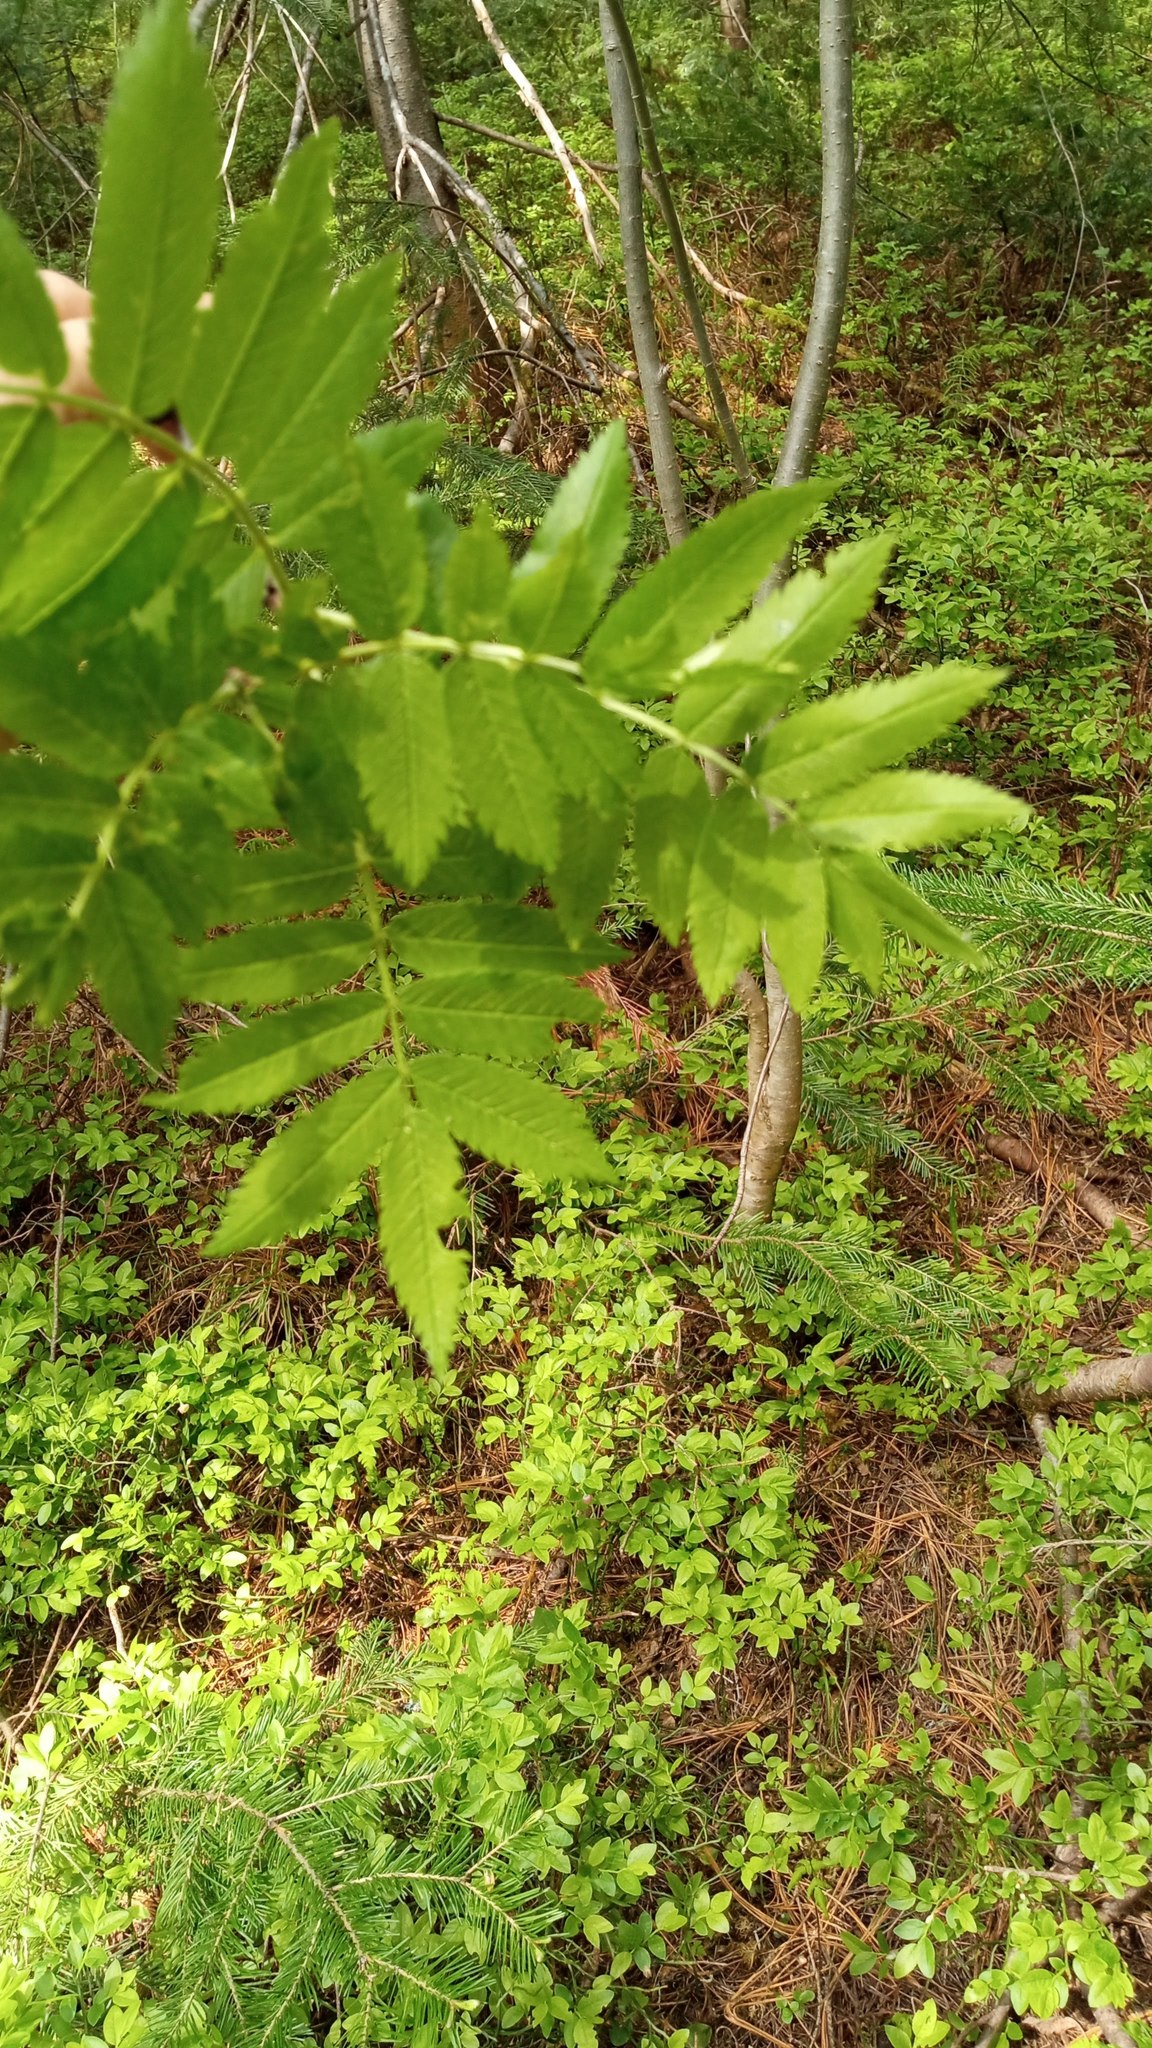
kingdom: Plantae
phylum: Tracheophyta
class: Magnoliopsida
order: Rosales
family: Rosaceae
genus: Sorbus
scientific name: Sorbus aucuparia
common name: Rowan
